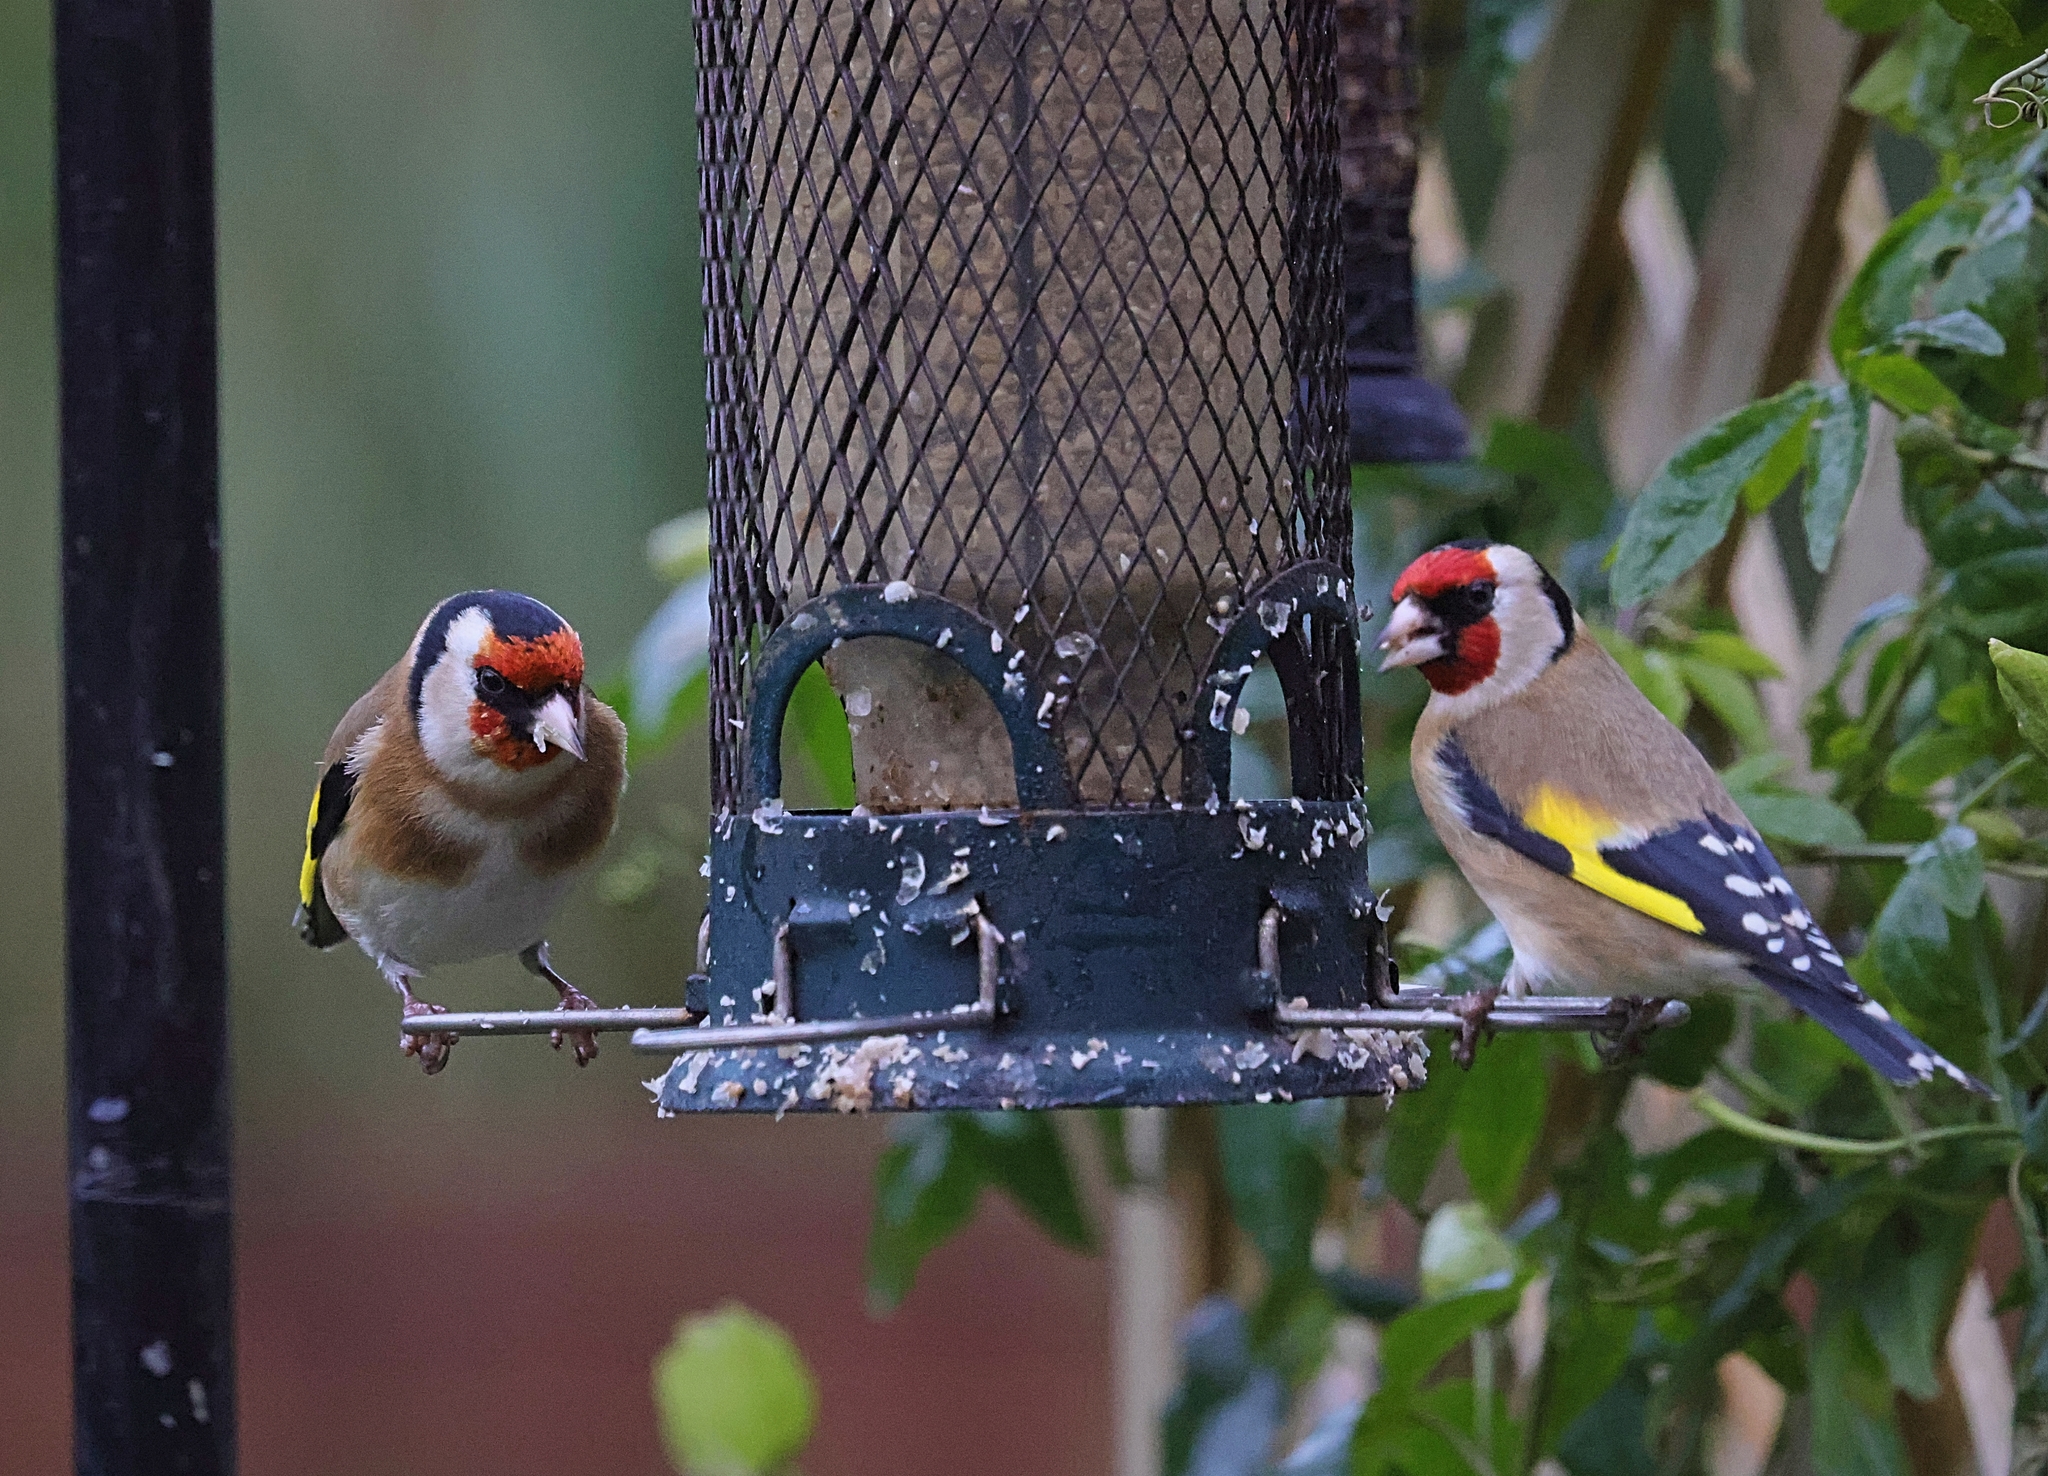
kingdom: Animalia
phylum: Chordata
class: Aves
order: Passeriformes
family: Fringillidae
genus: Carduelis
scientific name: Carduelis carduelis
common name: European goldfinch
